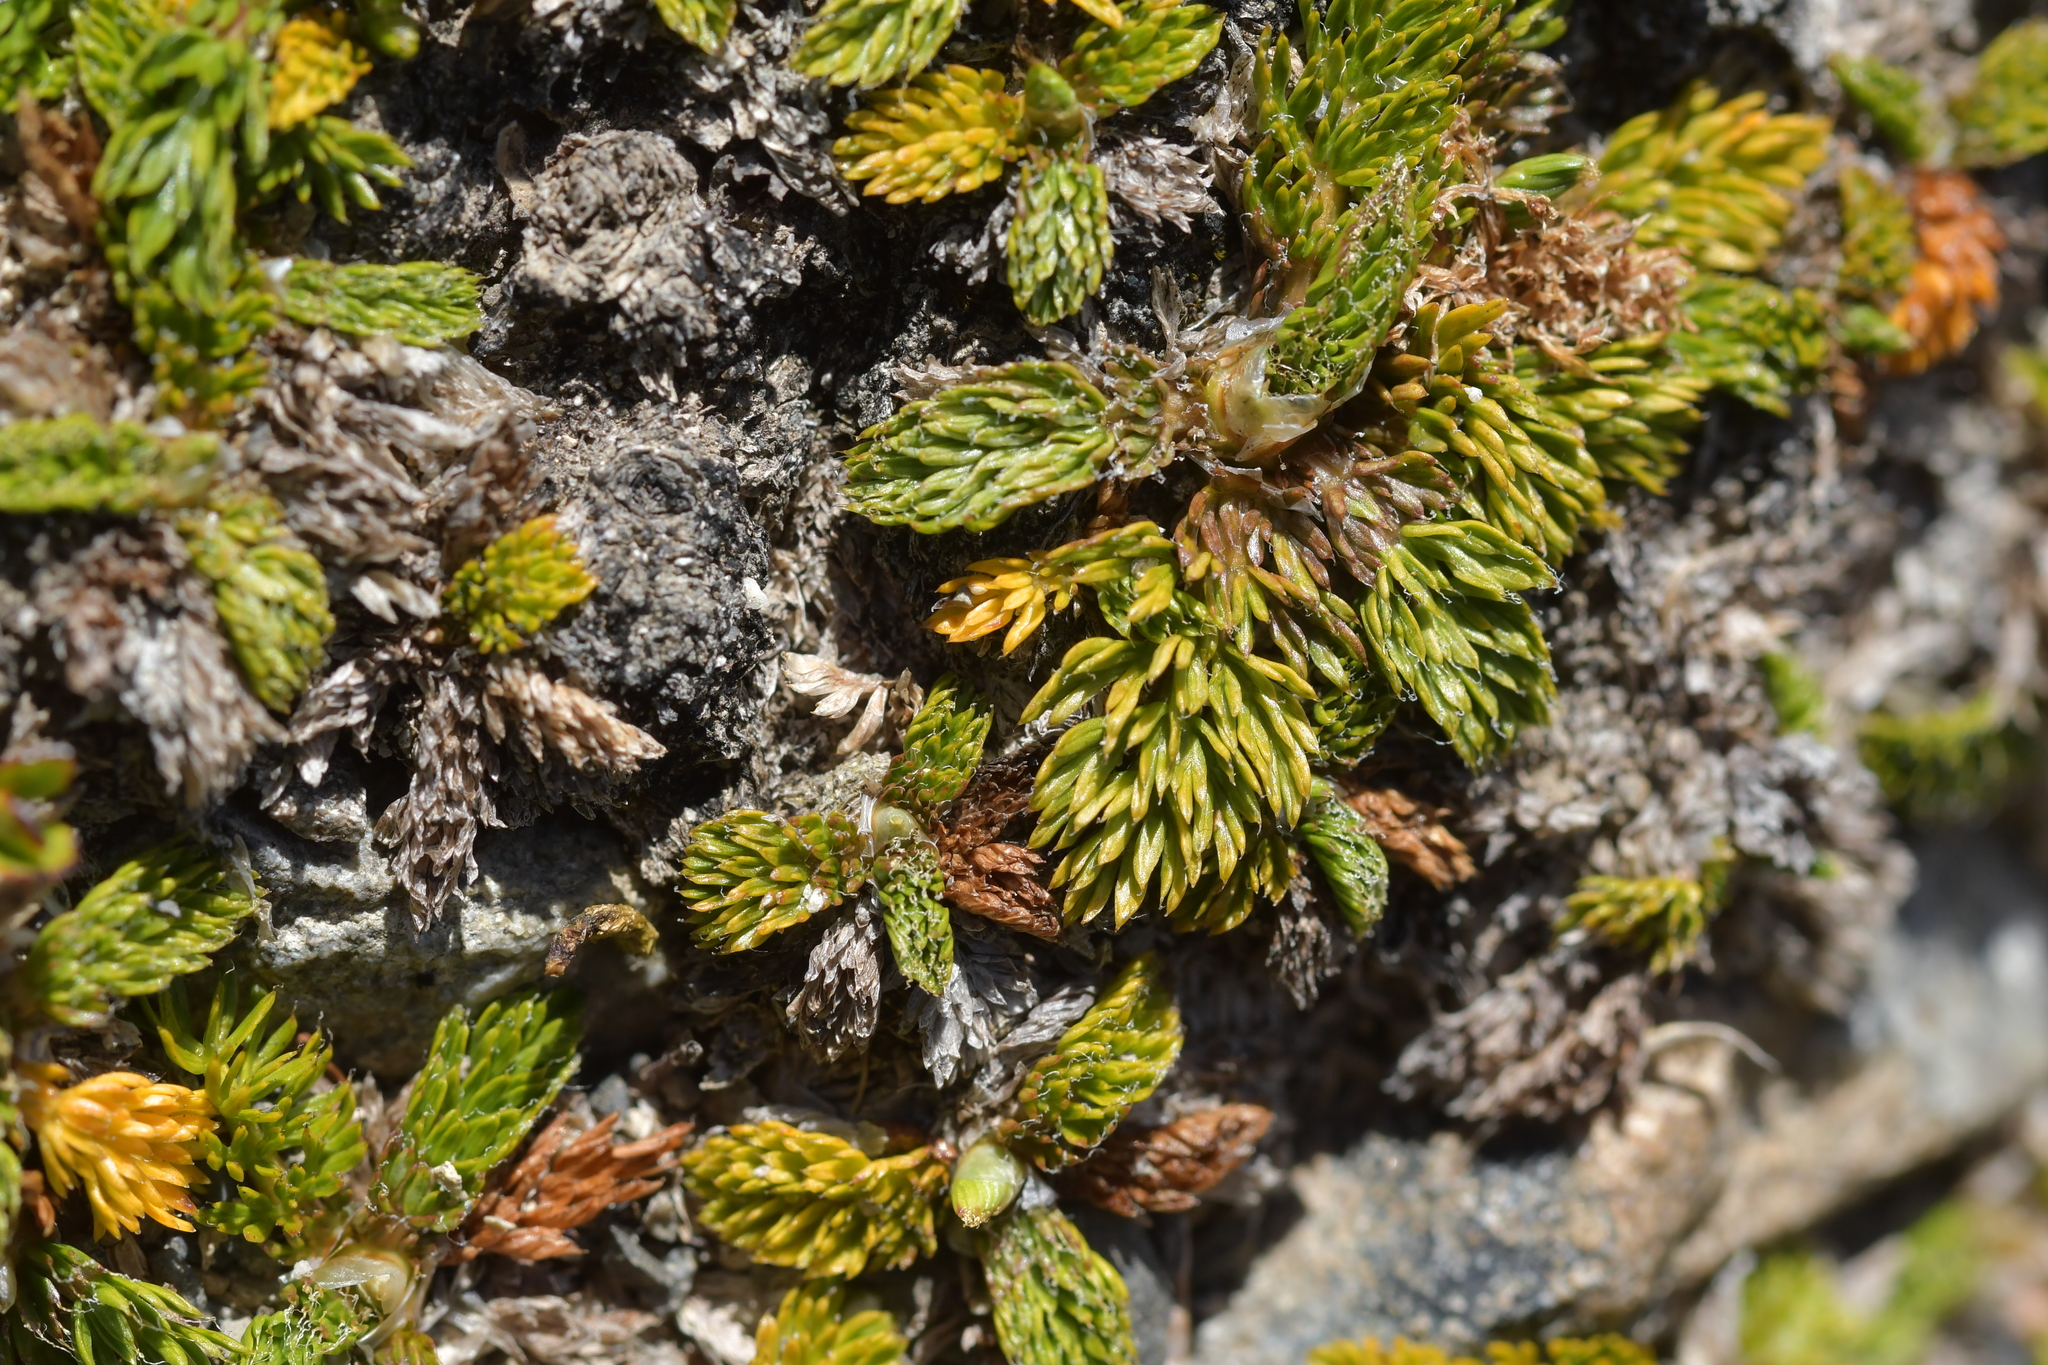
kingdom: Plantae
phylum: Tracheophyta
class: Magnoliopsida
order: Apiales
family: Apiaceae
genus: Anisotome
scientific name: Anisotome imbricata
